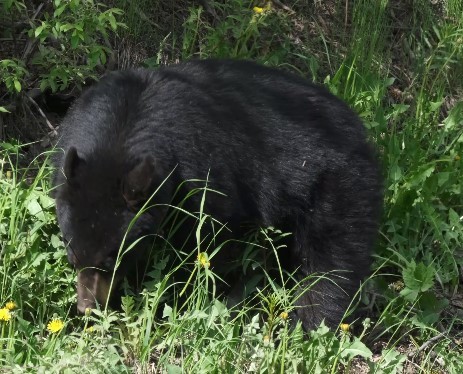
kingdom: Animalia
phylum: Chordata
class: Mammalia
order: Carnivora
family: Ursidae
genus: Ursus
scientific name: Ursus americanus
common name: American black bear
